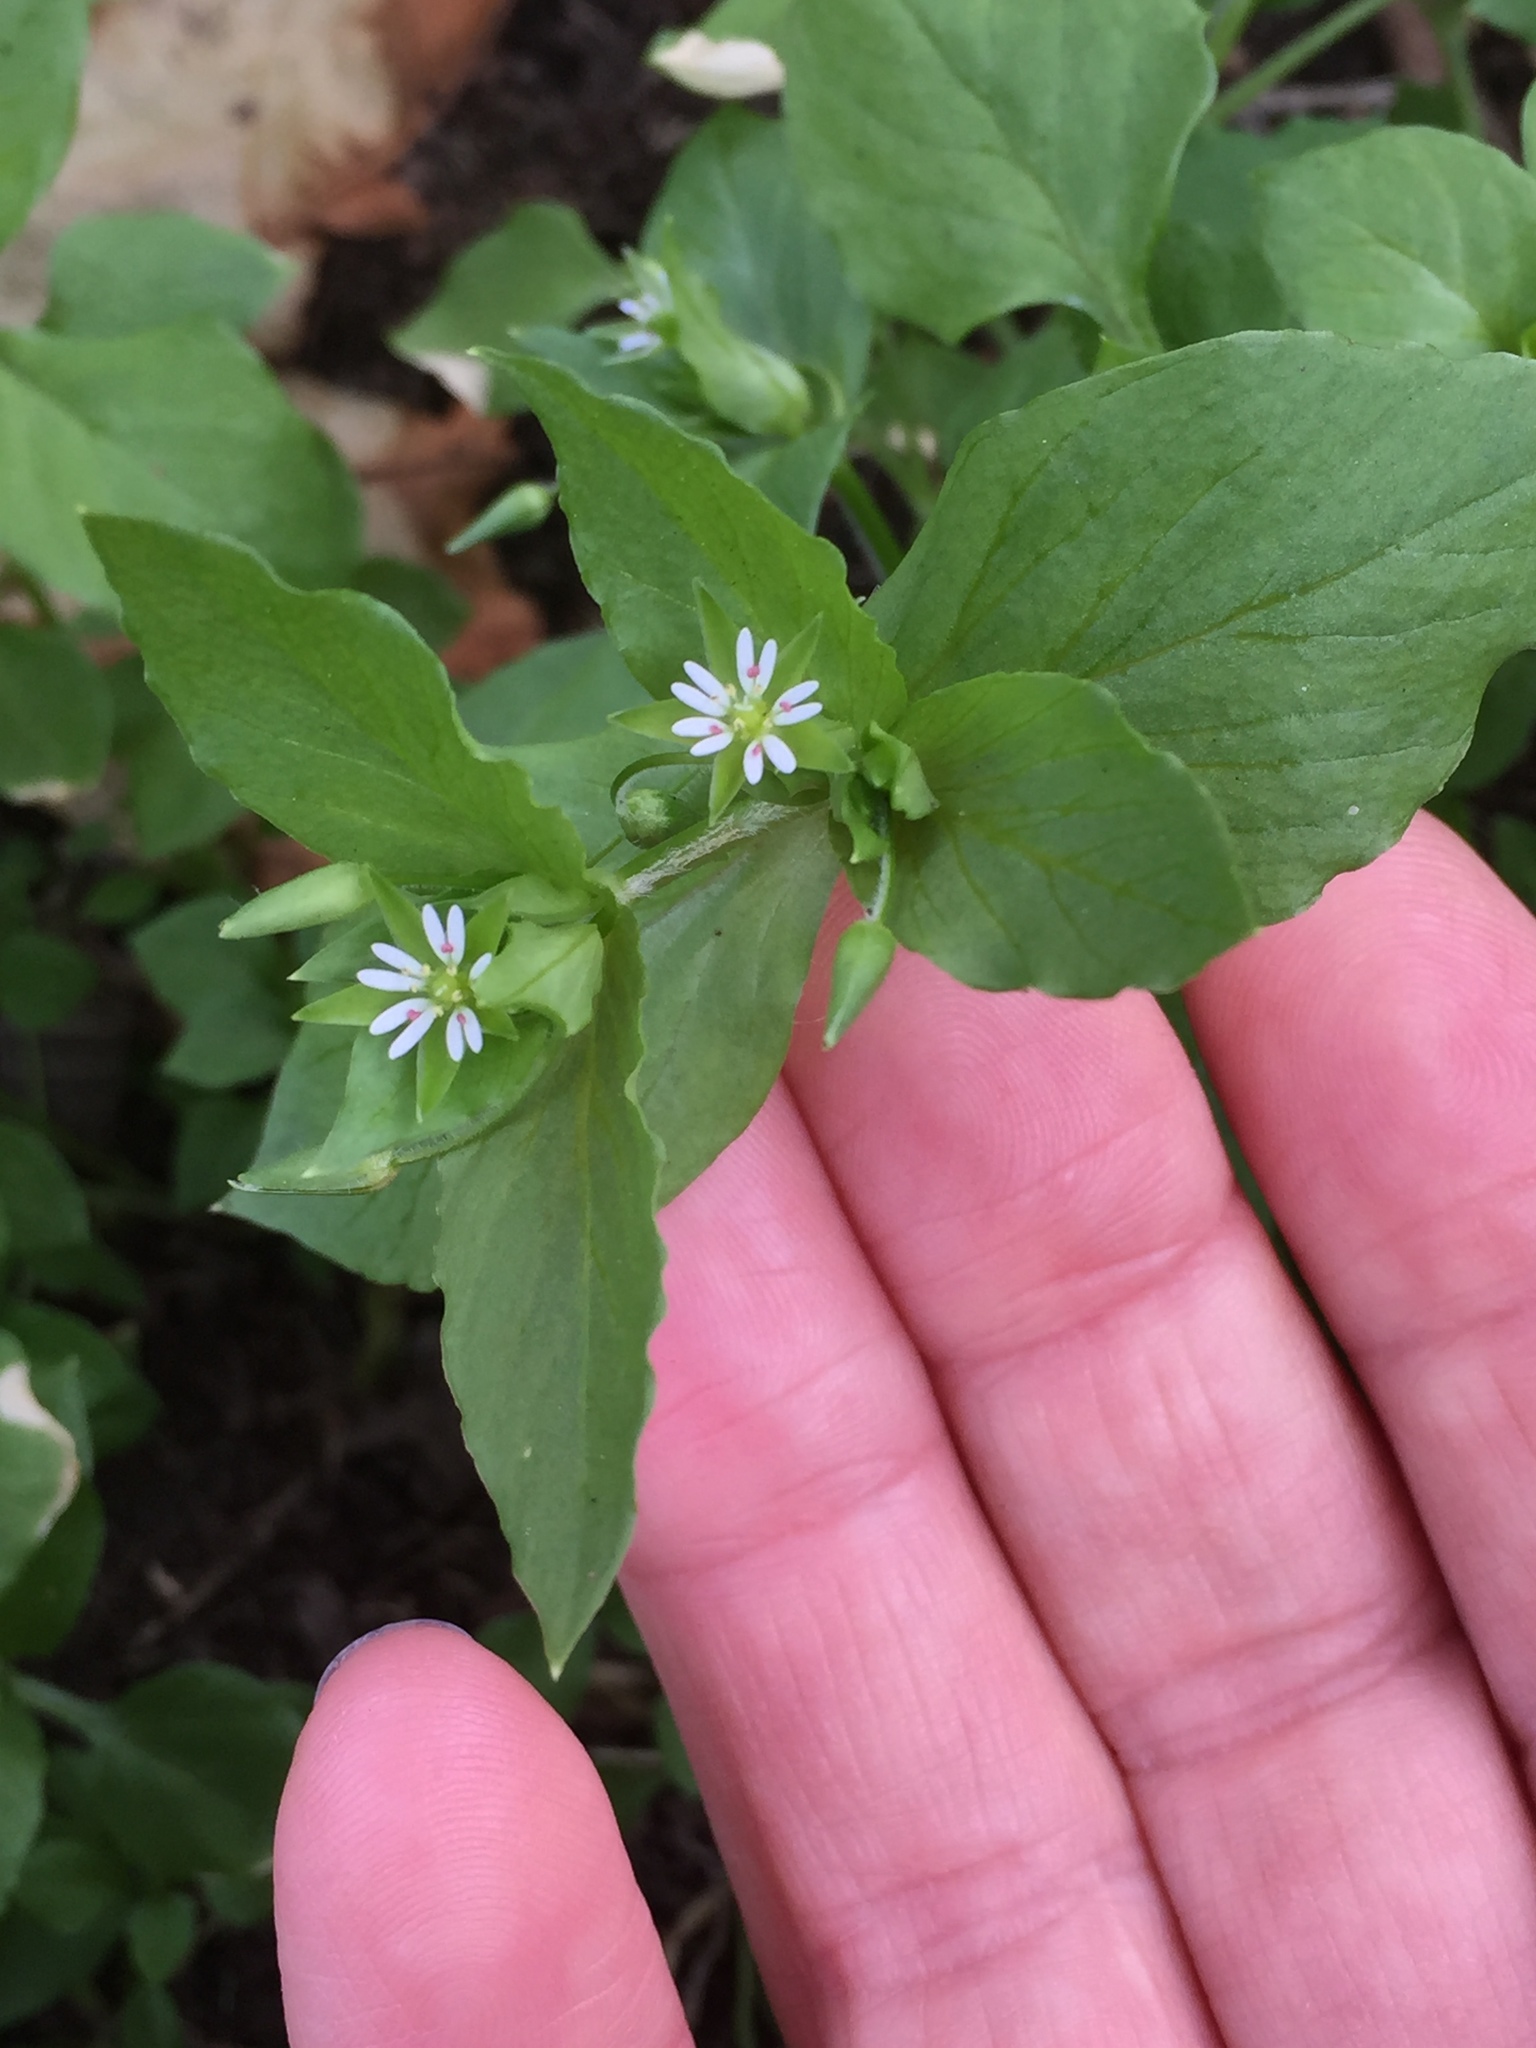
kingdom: Plantae
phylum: Tracheophyta
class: Magnoliopsida
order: Caryophyllales
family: Caryophyllaceae
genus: Stellaria
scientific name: Stellaria media
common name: Common chickweed
